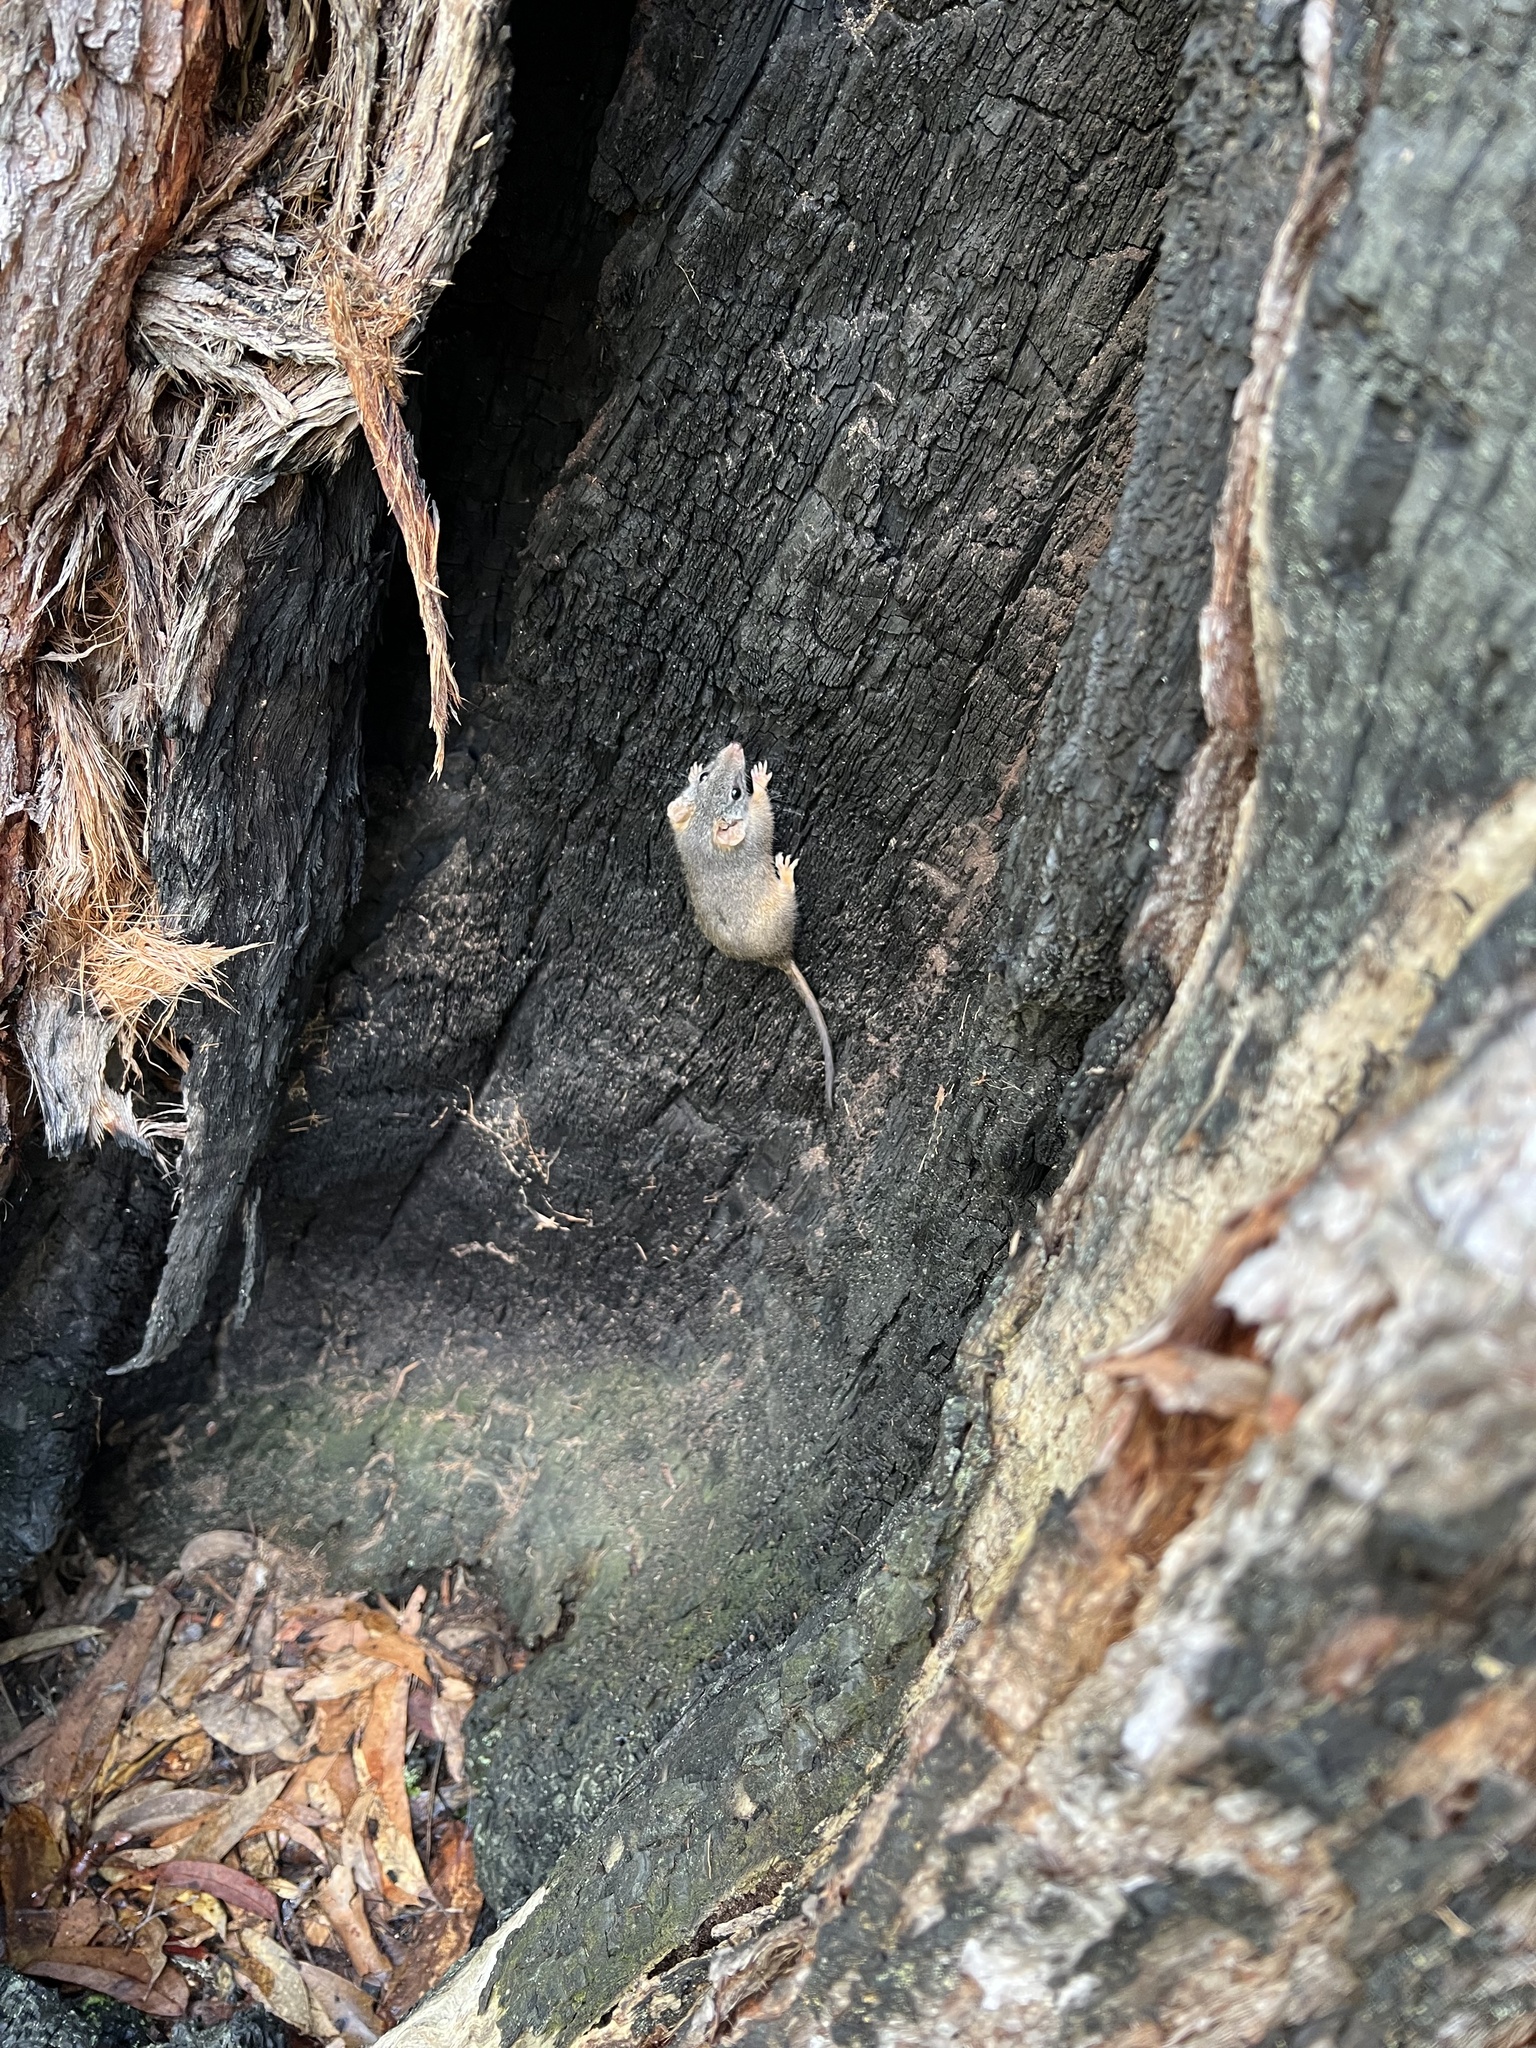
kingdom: Animalia
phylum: Chordata
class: Mammalia
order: Dasyuromorphia
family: Dasyuridae
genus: Antechinus
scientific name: Antechinus flavipes
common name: Yellow-footed antechinus
